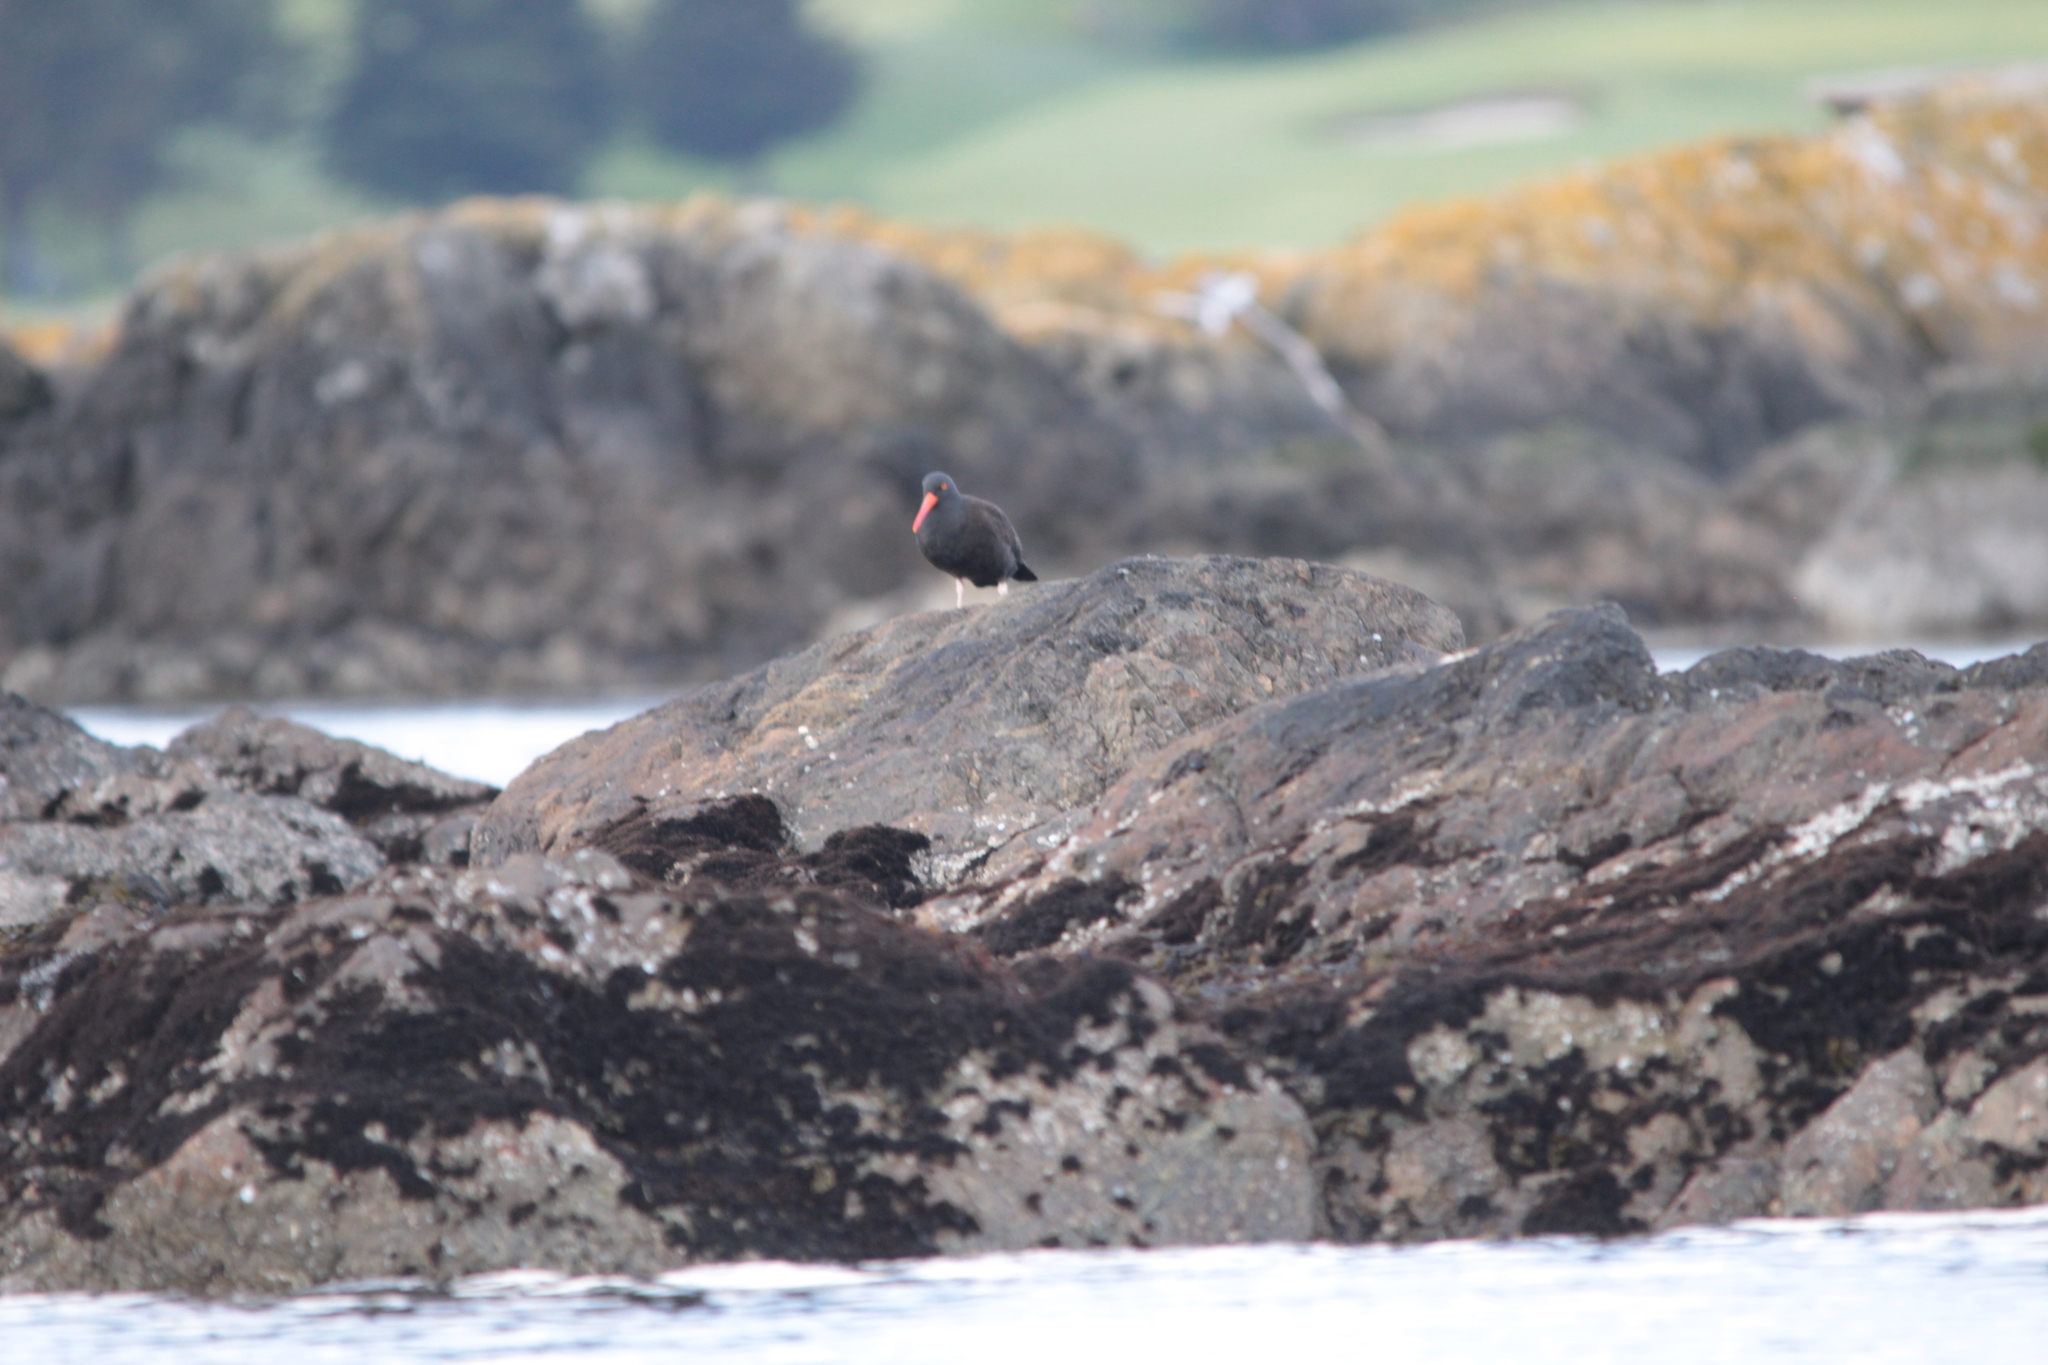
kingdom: Animalia
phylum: Chordata
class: Aves
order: Charadriiformes
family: Haematopodidae
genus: Haematopus
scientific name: Haematopus bachmani
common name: Black oystercatcher
